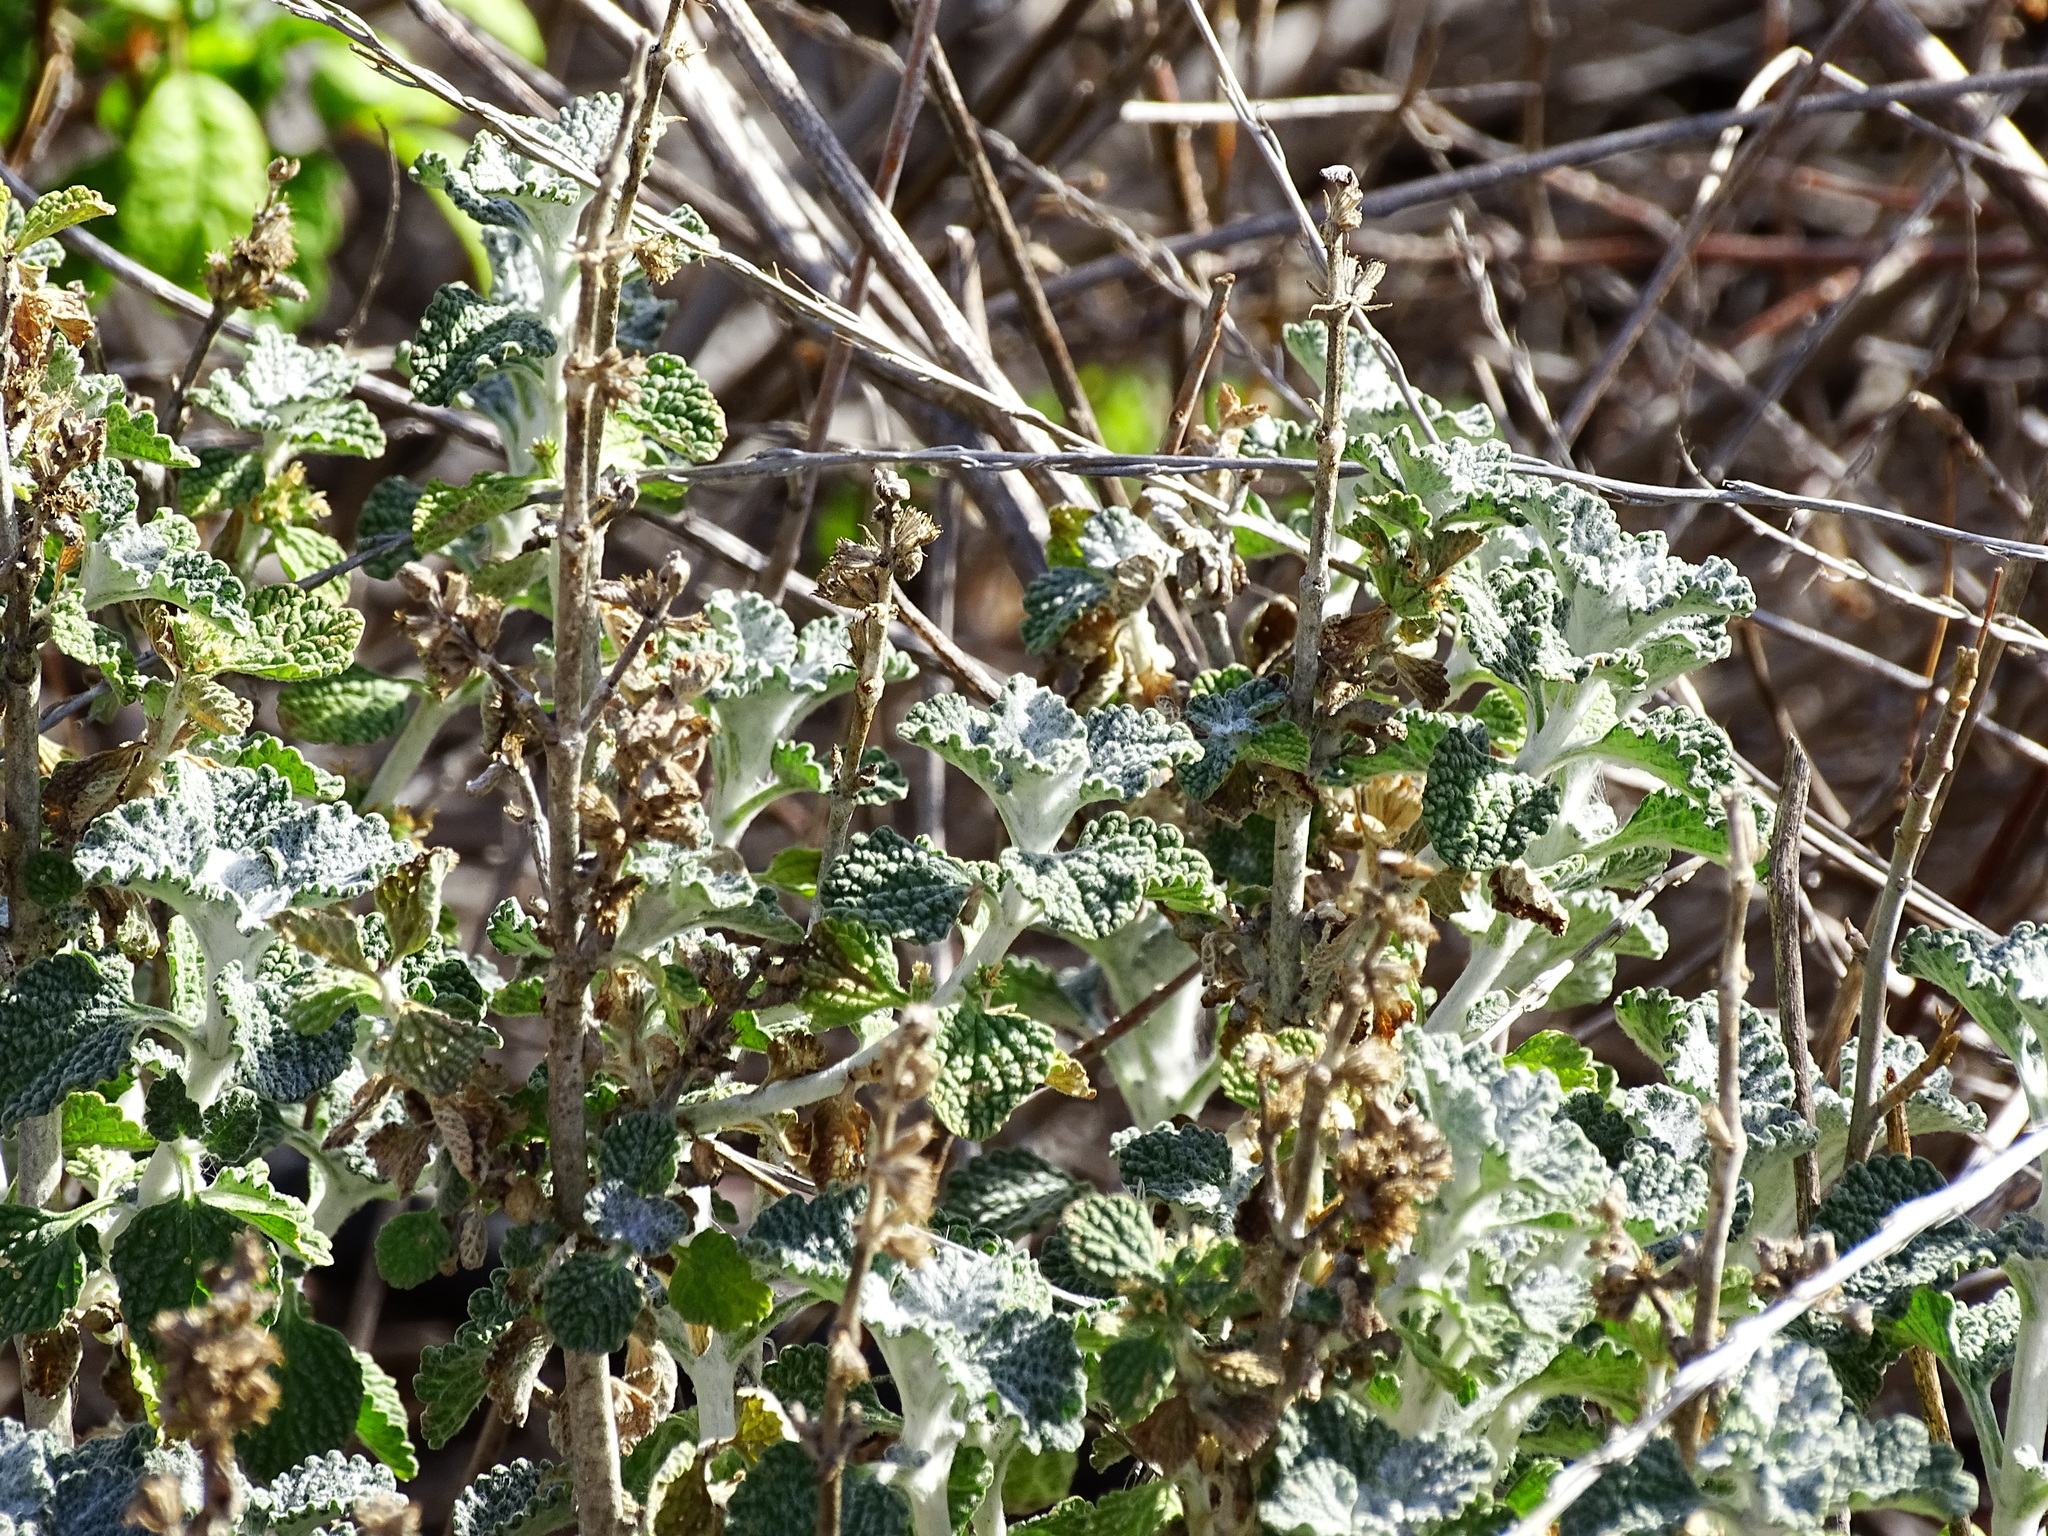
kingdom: Plantae
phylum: Tracheophyta
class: Magnoliopsida
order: Lamiales
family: Lamiaceae
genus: Marrubium
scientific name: Marrubium vulgare
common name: Horehound
